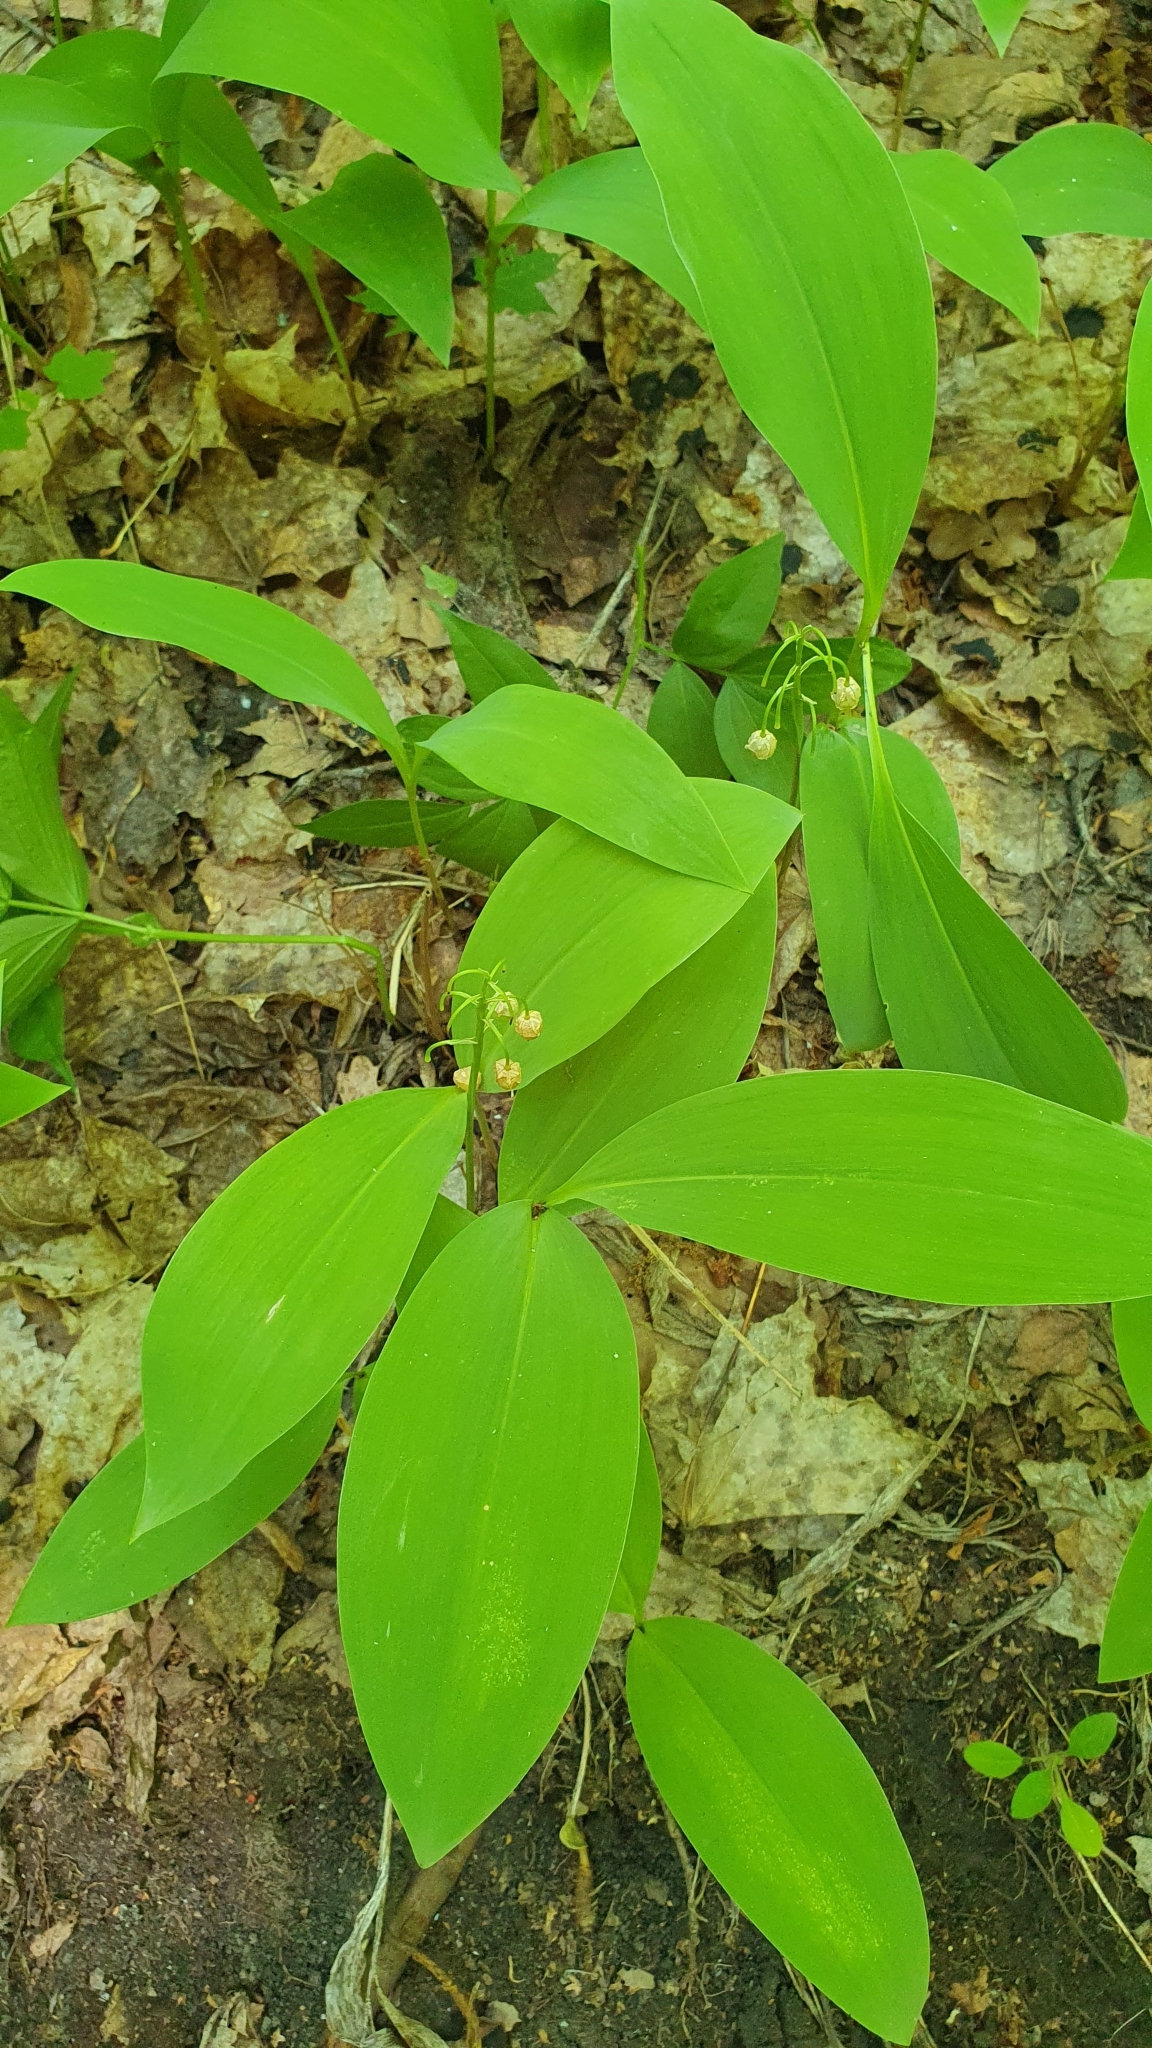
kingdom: Plantae
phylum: Tracheophyta
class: Liliopsida
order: Asparagales
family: Asparagaceae
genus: Convallaria
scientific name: Convallaria majalis
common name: Lily-of-the-valley
